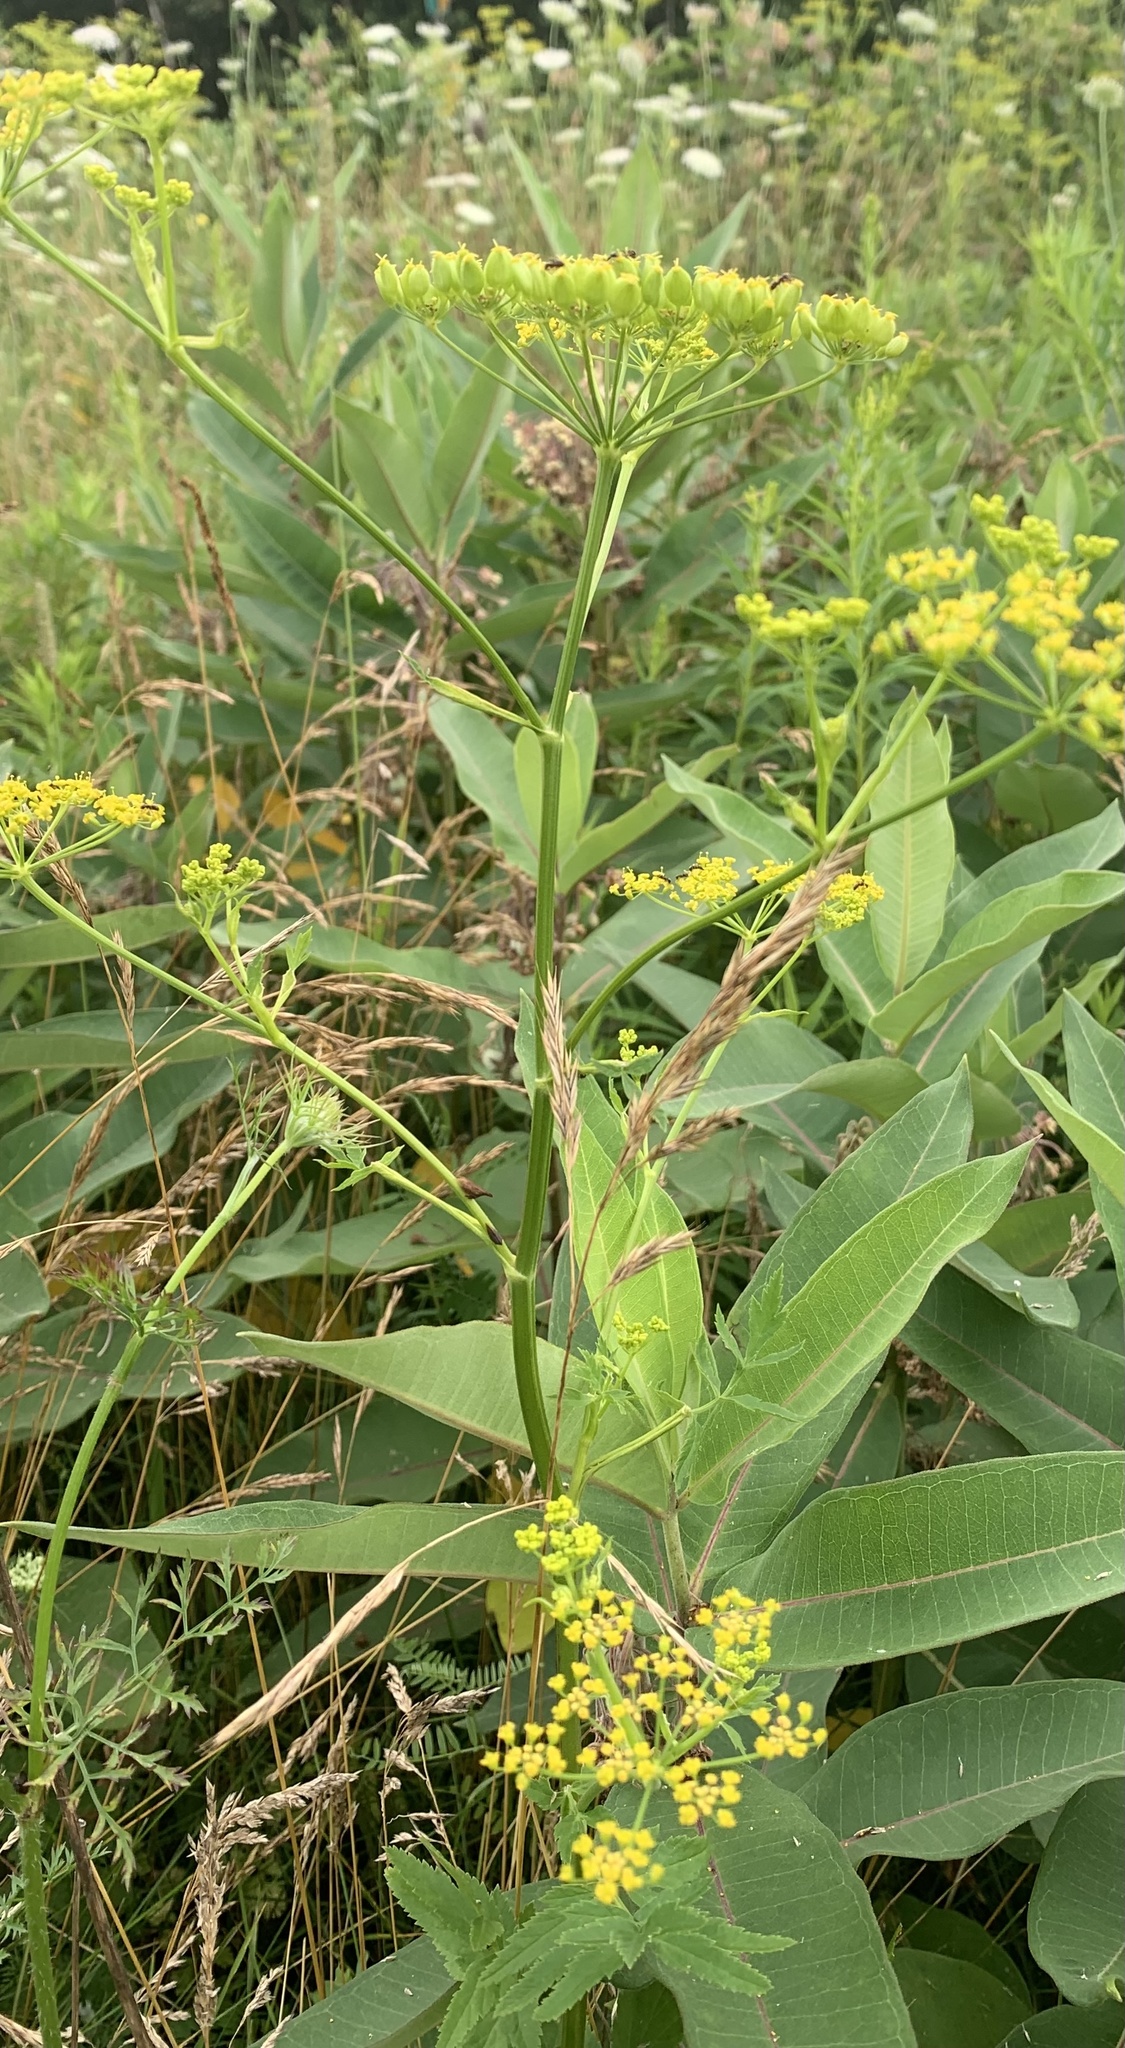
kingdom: Plantae
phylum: Tracheophyta
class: Magnoliopsida
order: Apiales
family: Apiaceae
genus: Pastinaca
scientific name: Pastinaca sativa
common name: Wild parsnip
